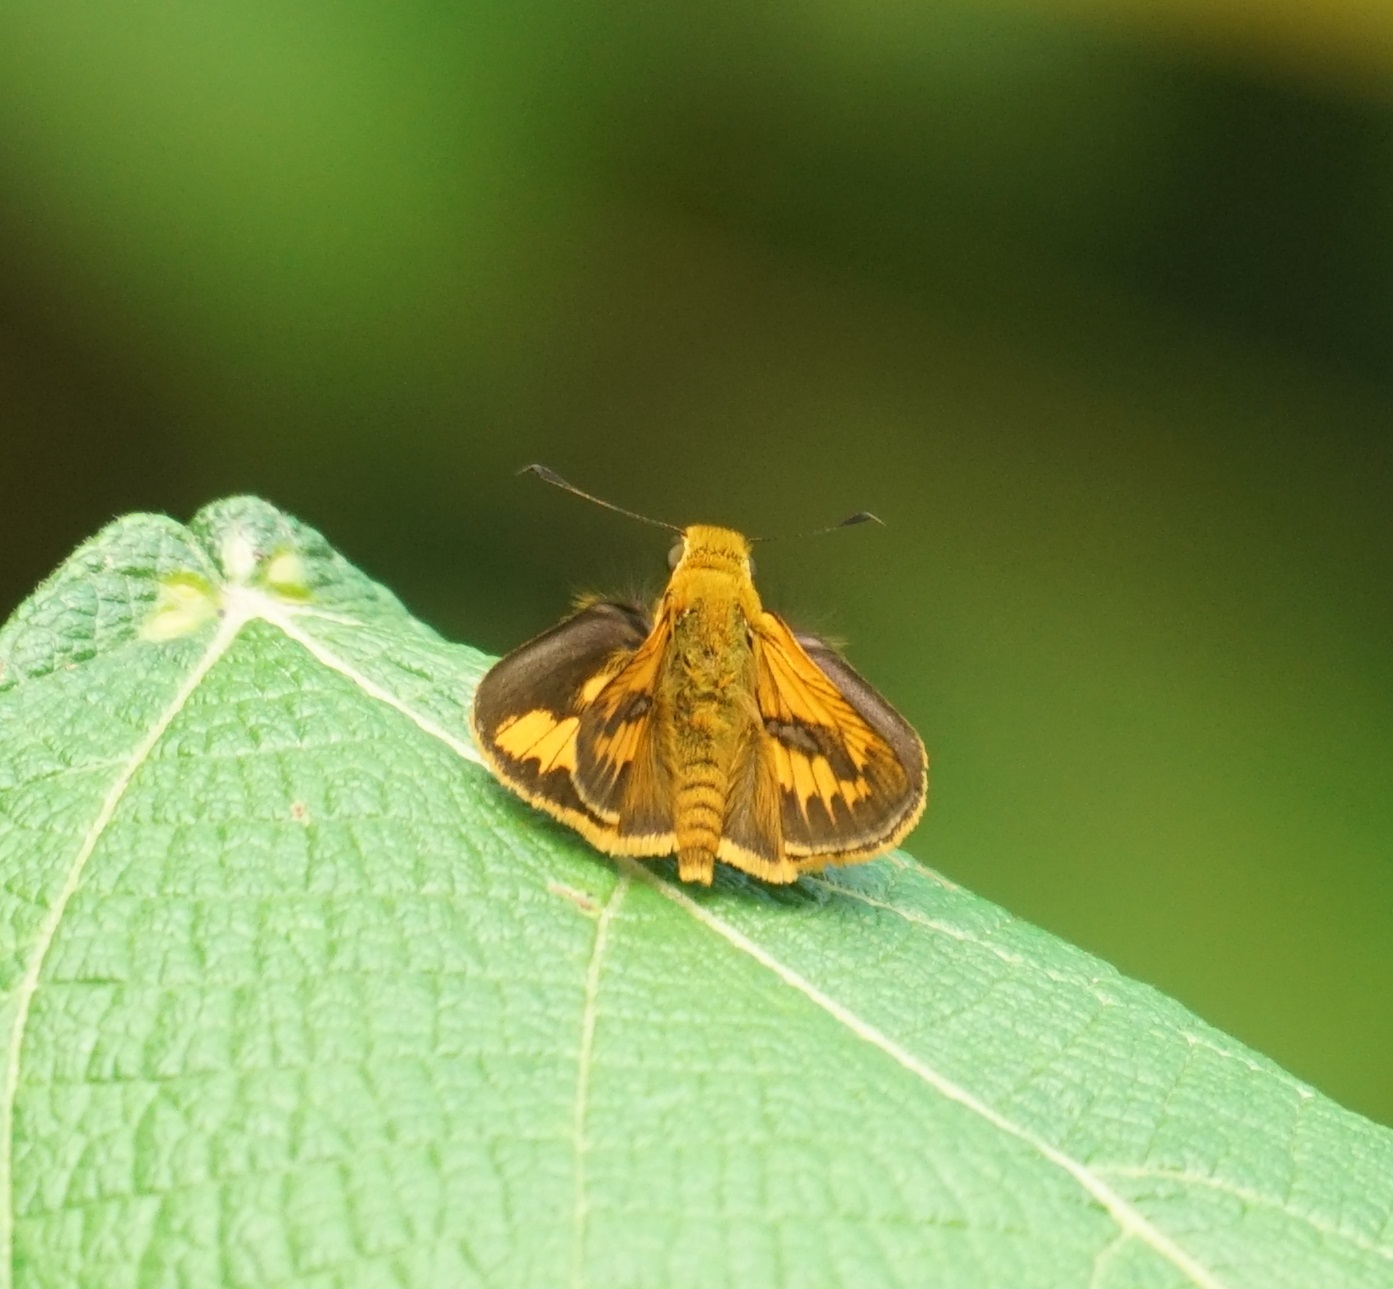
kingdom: Animalia
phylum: Arthropoda
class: Insecta
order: Lepidoptera
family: Hesperiidae
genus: Telicota
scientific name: Telicota augias
